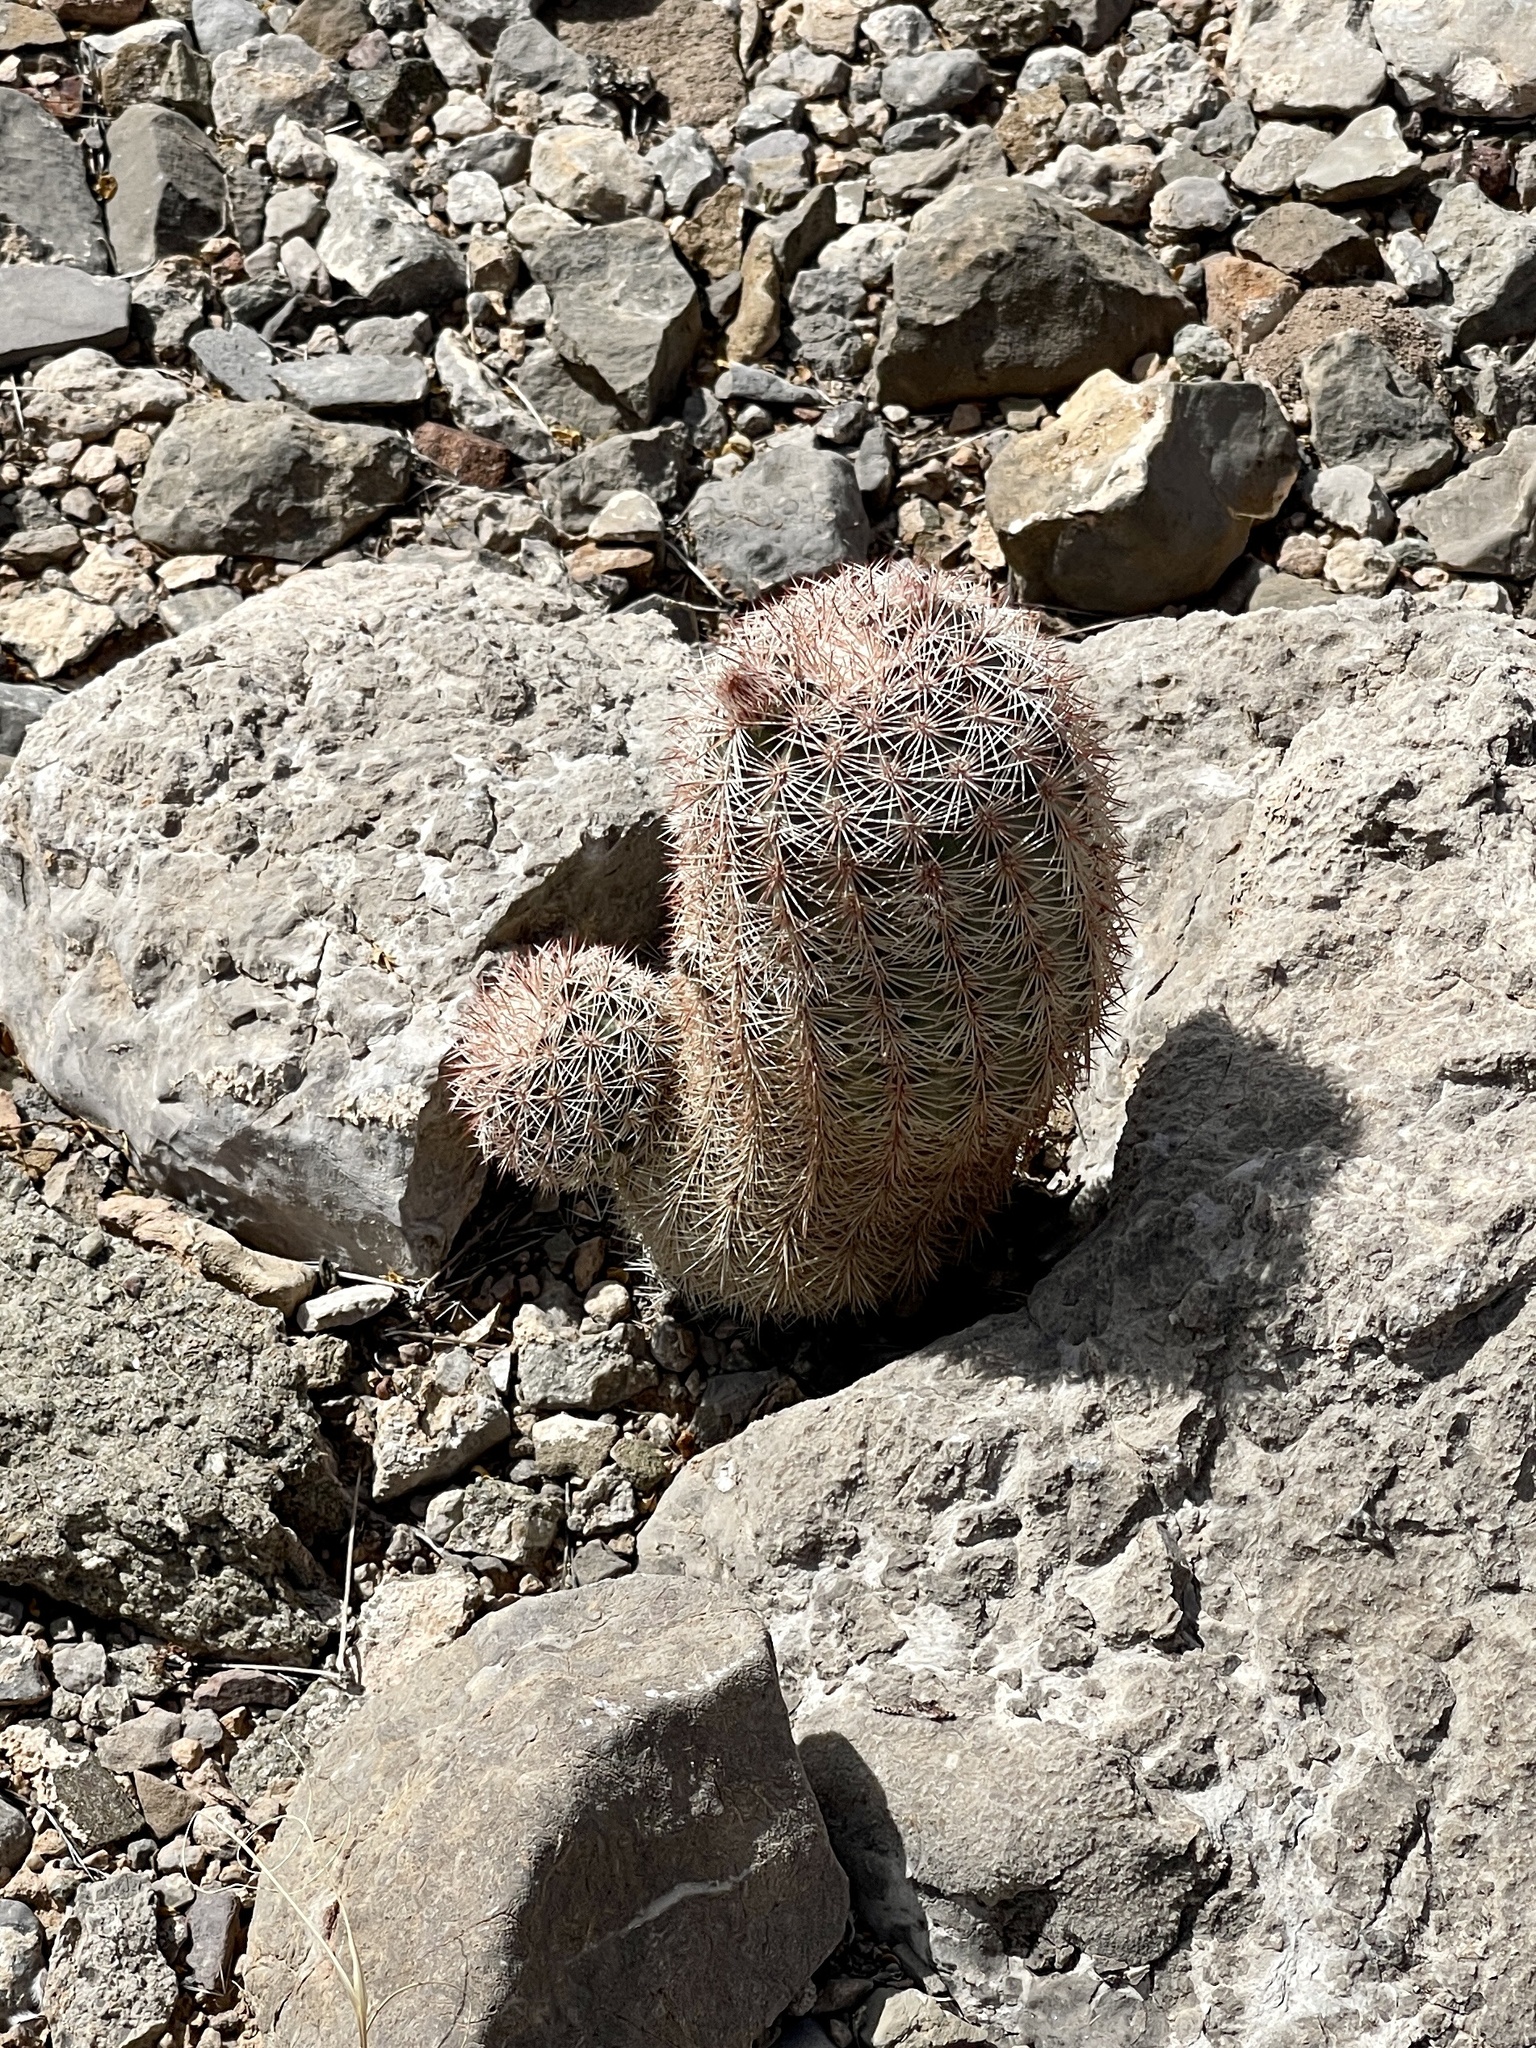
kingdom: Plantae
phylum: Tracheophyta
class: Magnoliopsida
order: Caryophyllales
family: Cactaceae
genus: Echinocereus
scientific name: Echinocereus dasyacanthus
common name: Spiny hedgehog cactus
